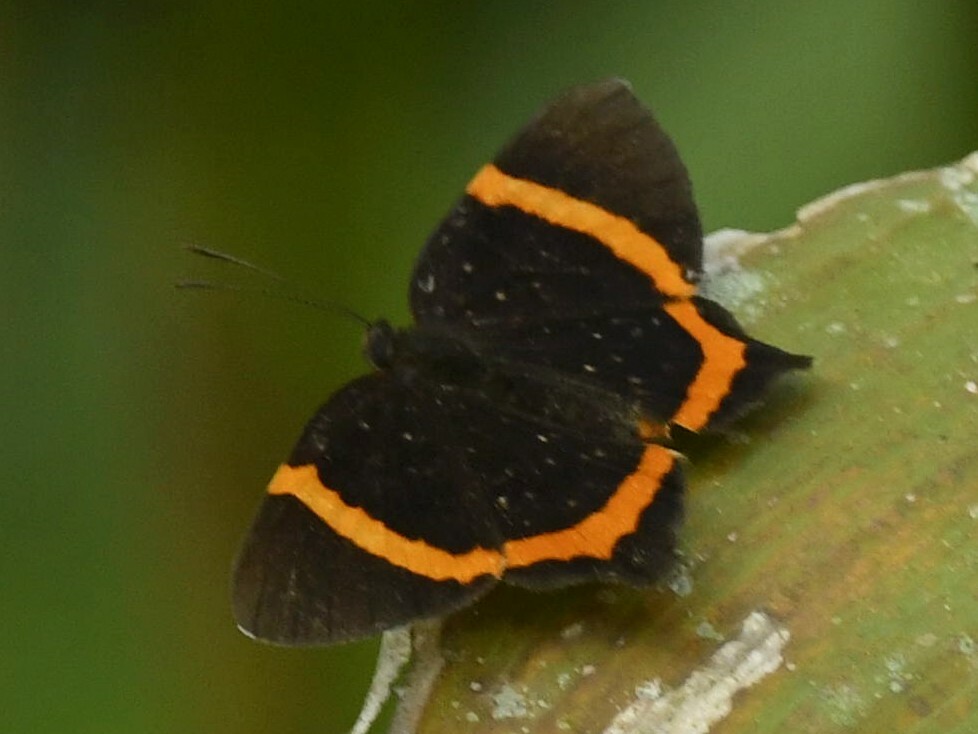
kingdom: Animalia
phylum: Arthropoda
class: Insecta
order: Lepidoptera
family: Riodinidae
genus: Riodina
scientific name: Riodina lysippus
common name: Lysippus metalmark
